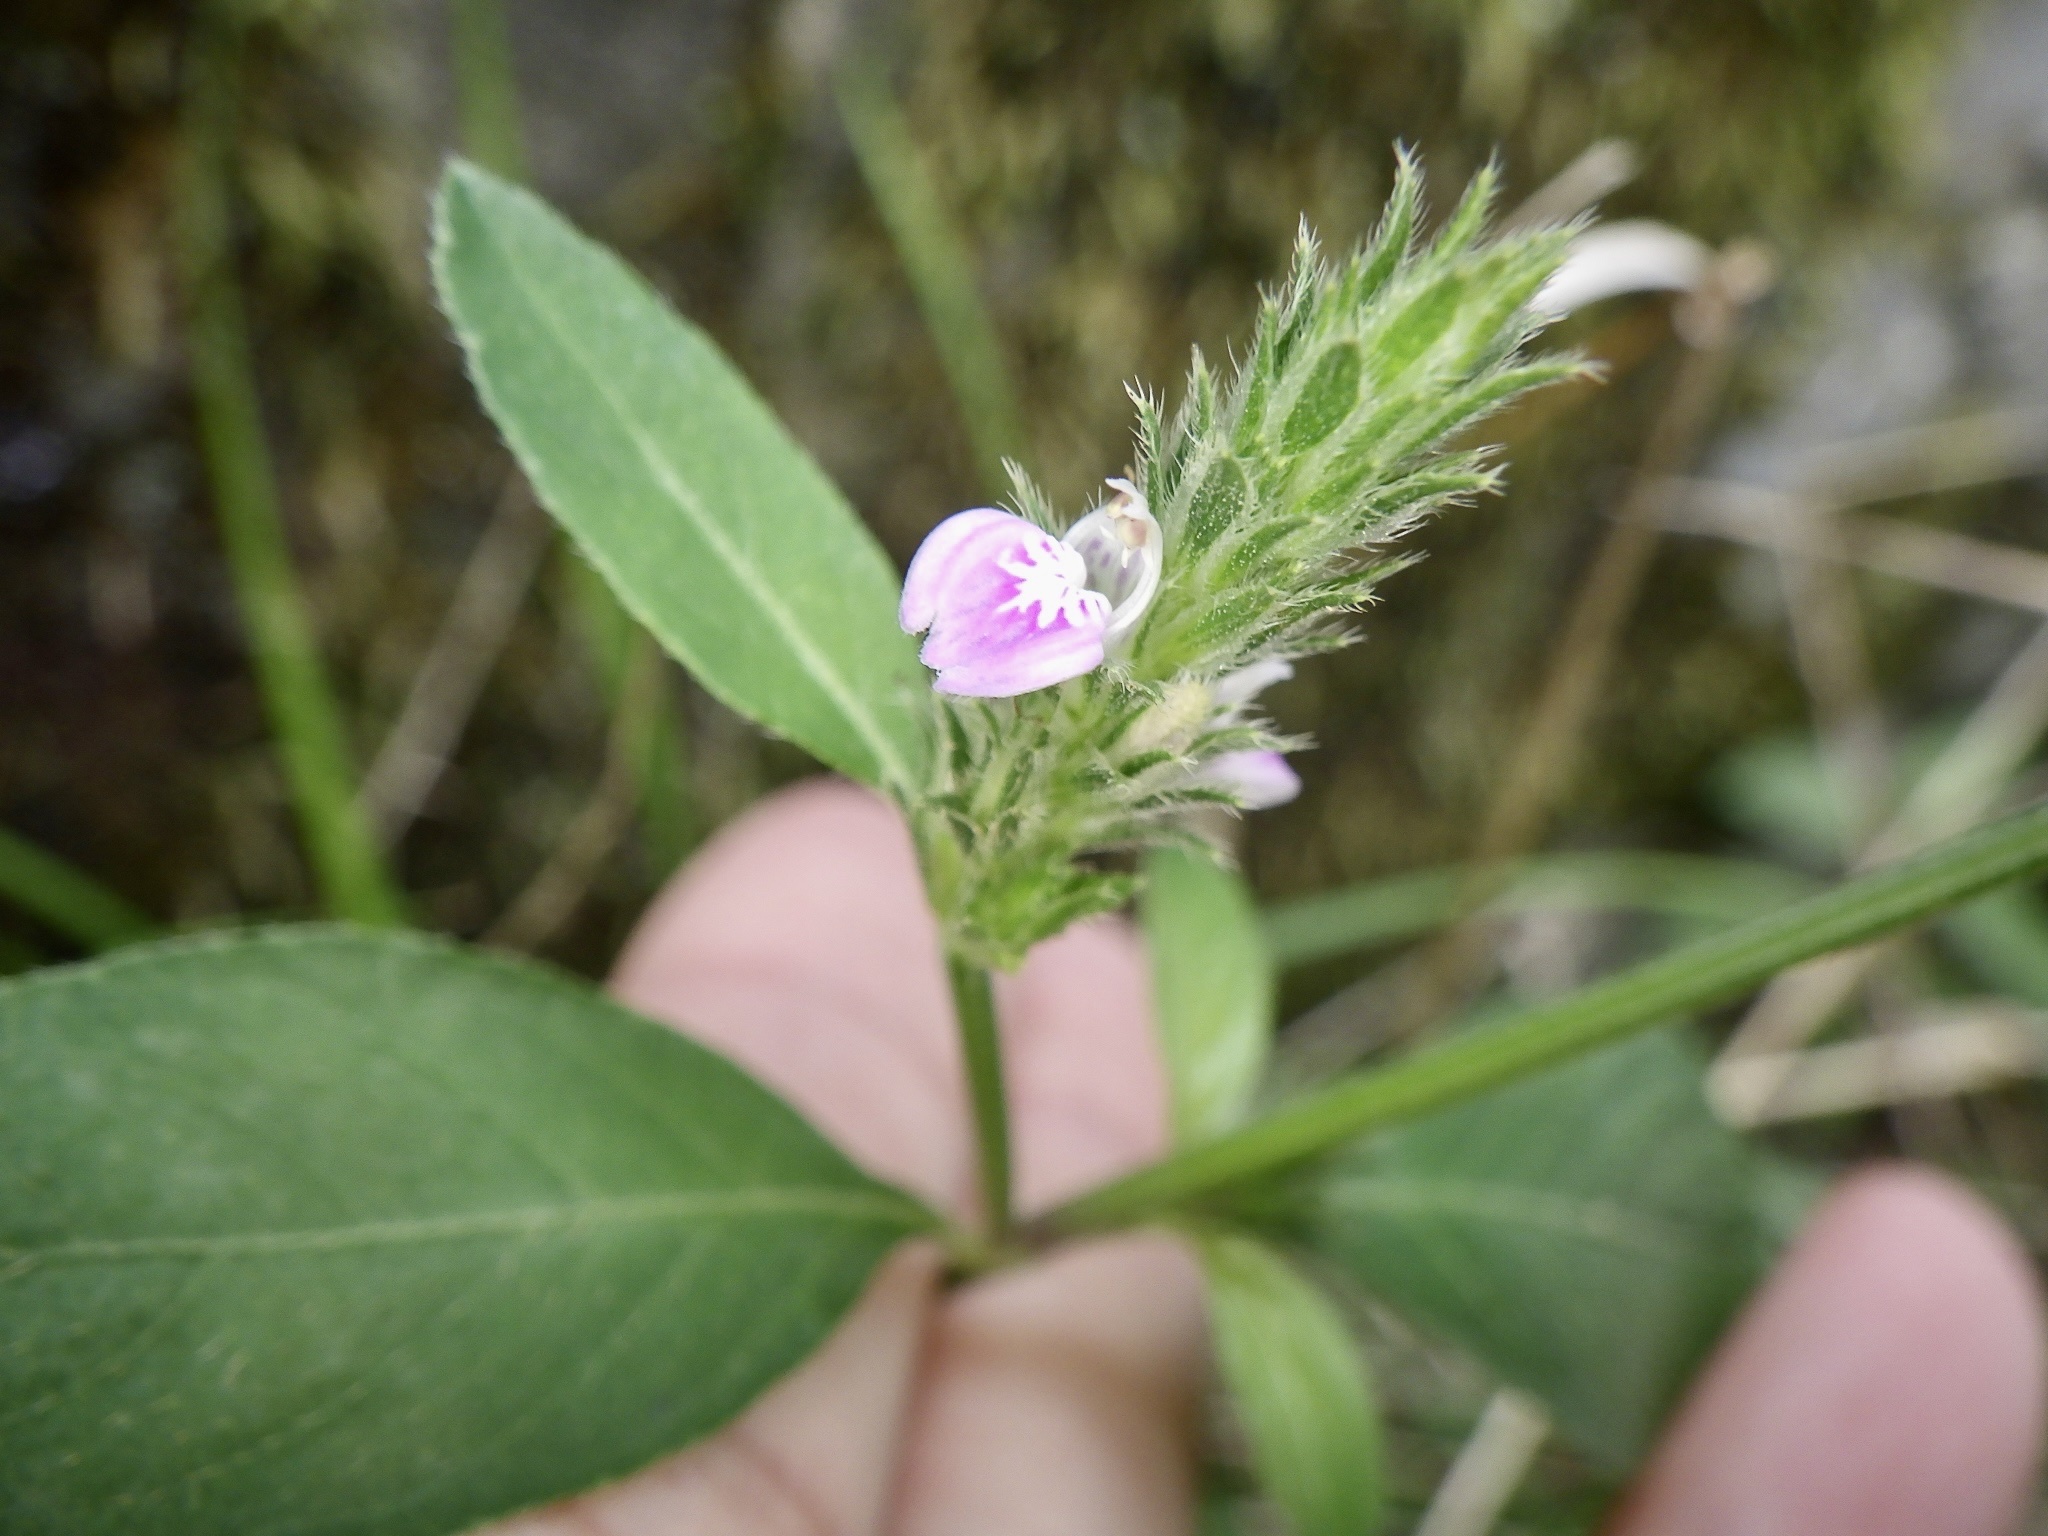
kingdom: Plantae
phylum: Tracheophyta
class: Magnoliopsida
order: Lamiales
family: Acanthaceae
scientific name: Acanthaceae
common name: Acanthaceae
